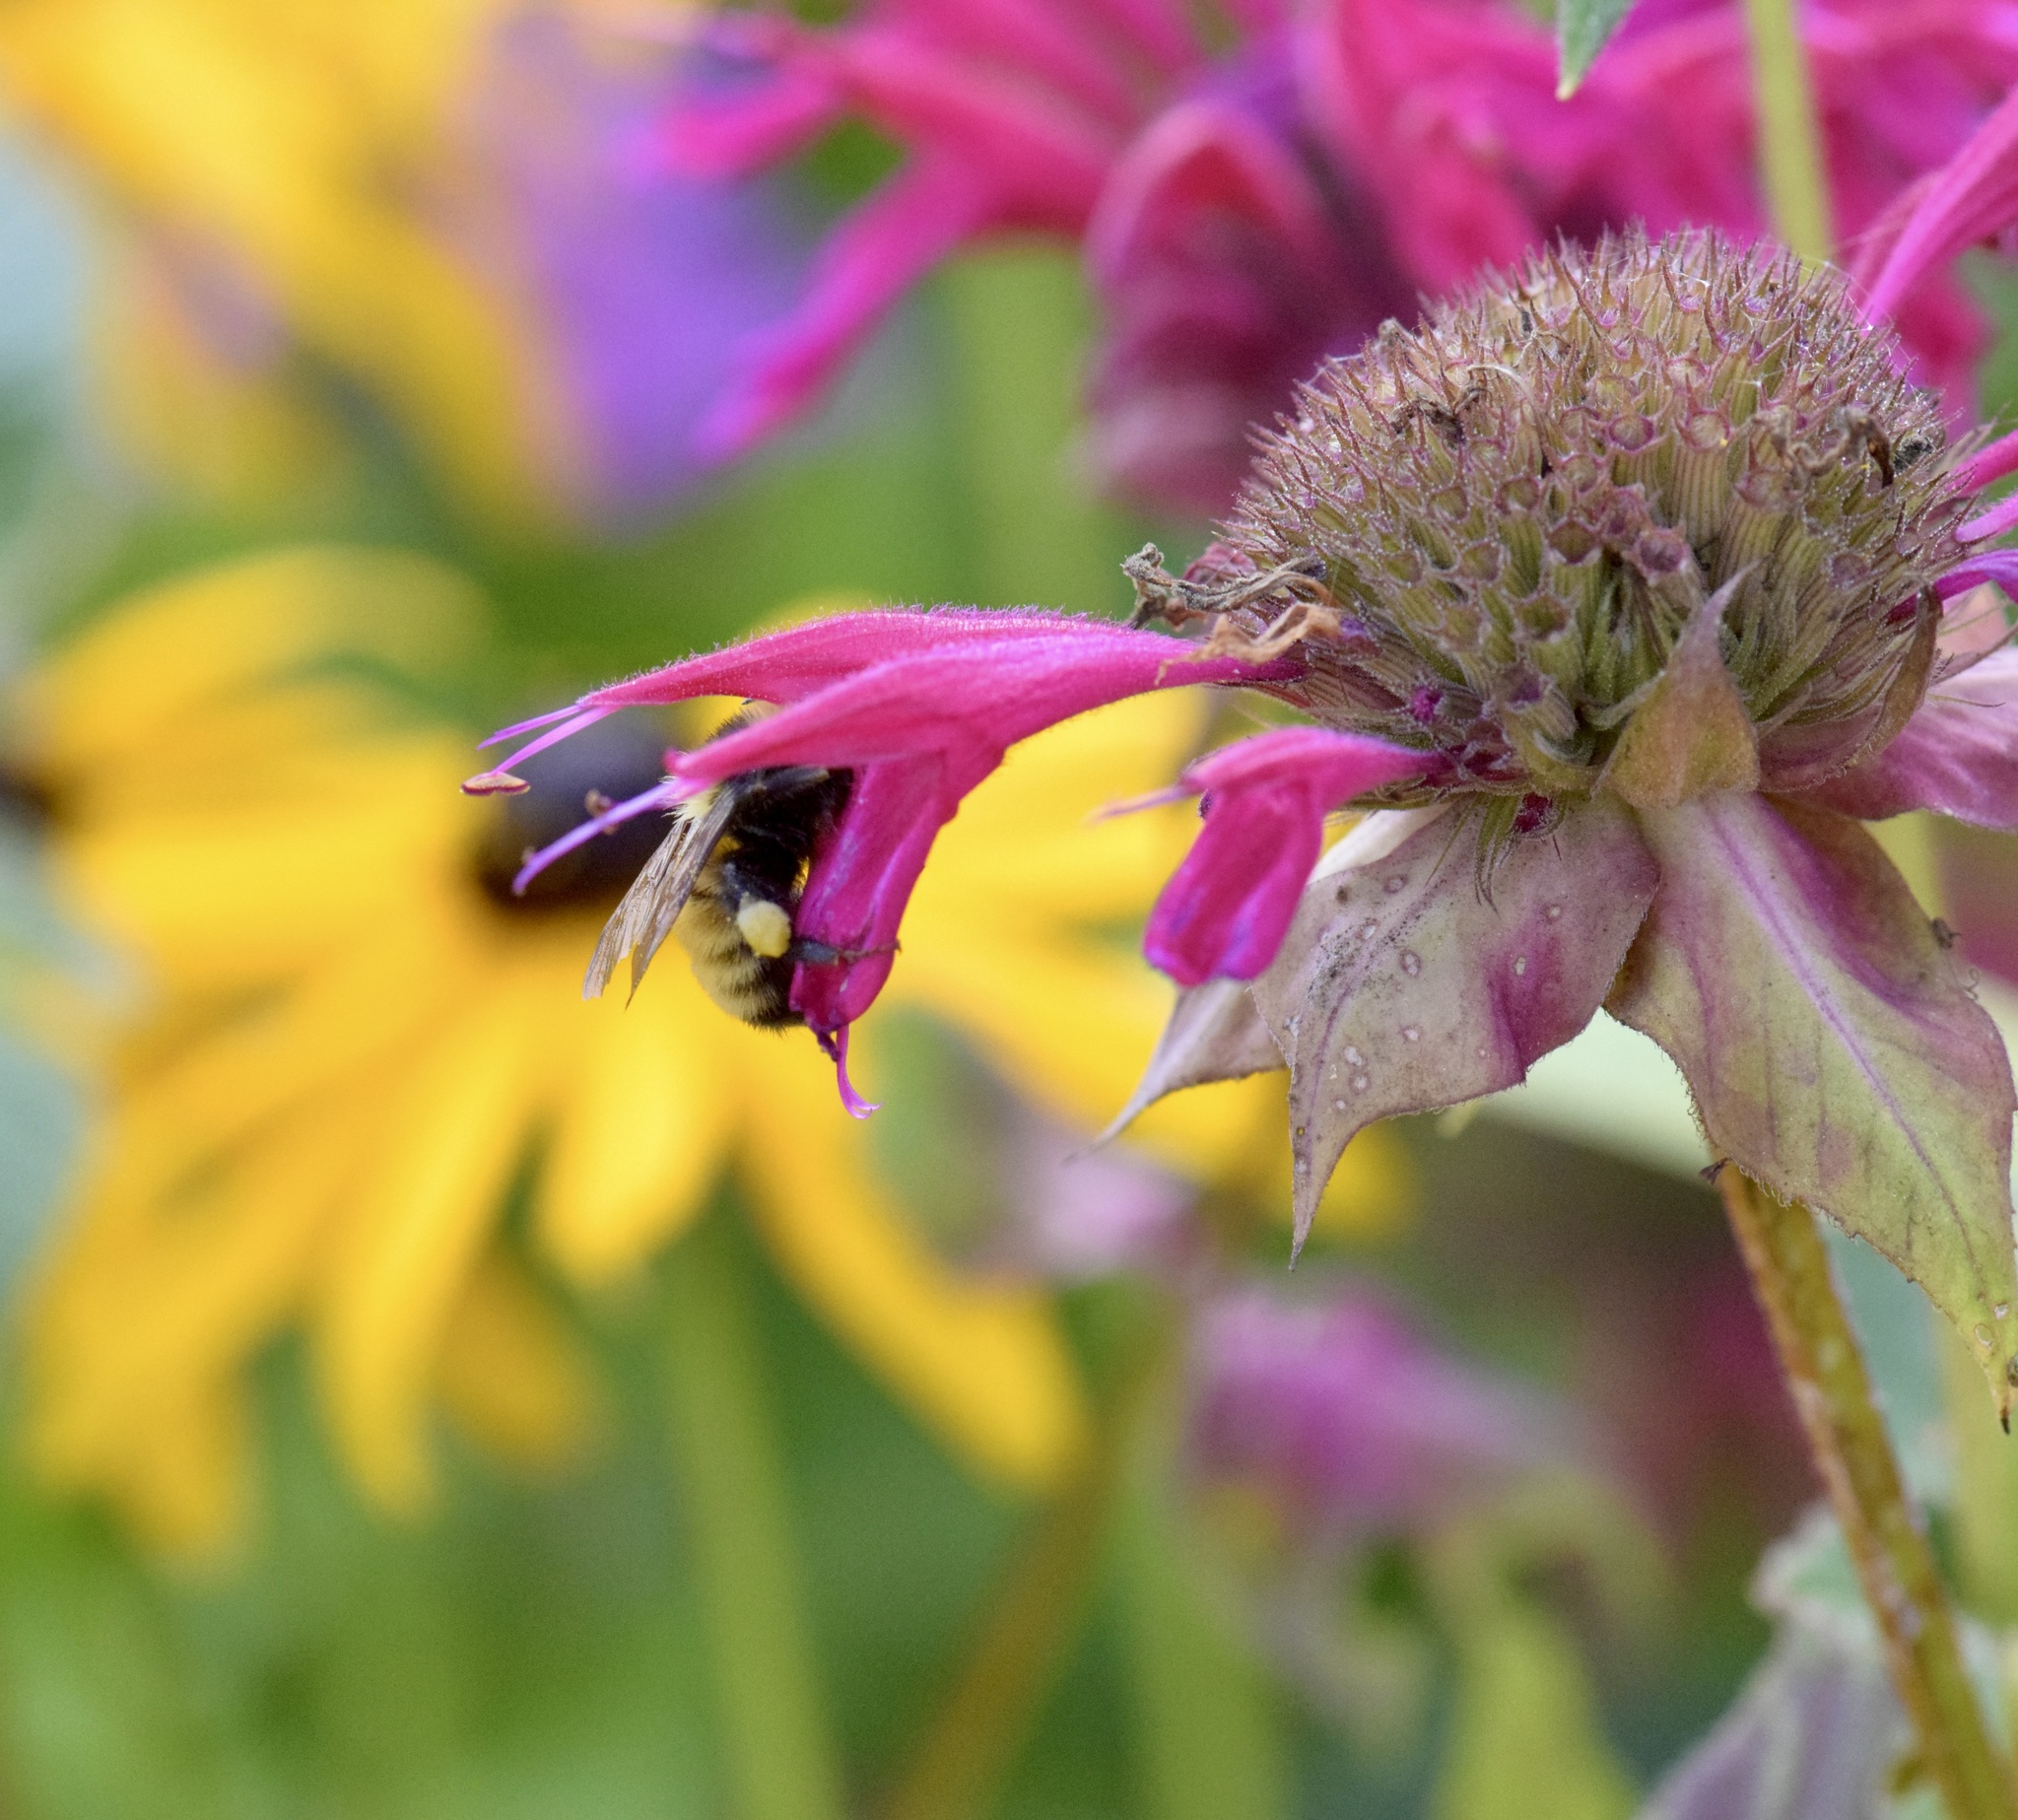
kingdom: Animalia
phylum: Arthropoda
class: Insecta
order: Hymenoptera
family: Apidae
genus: Bombus
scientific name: Bombus borealis
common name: Northern amber bumble bee
